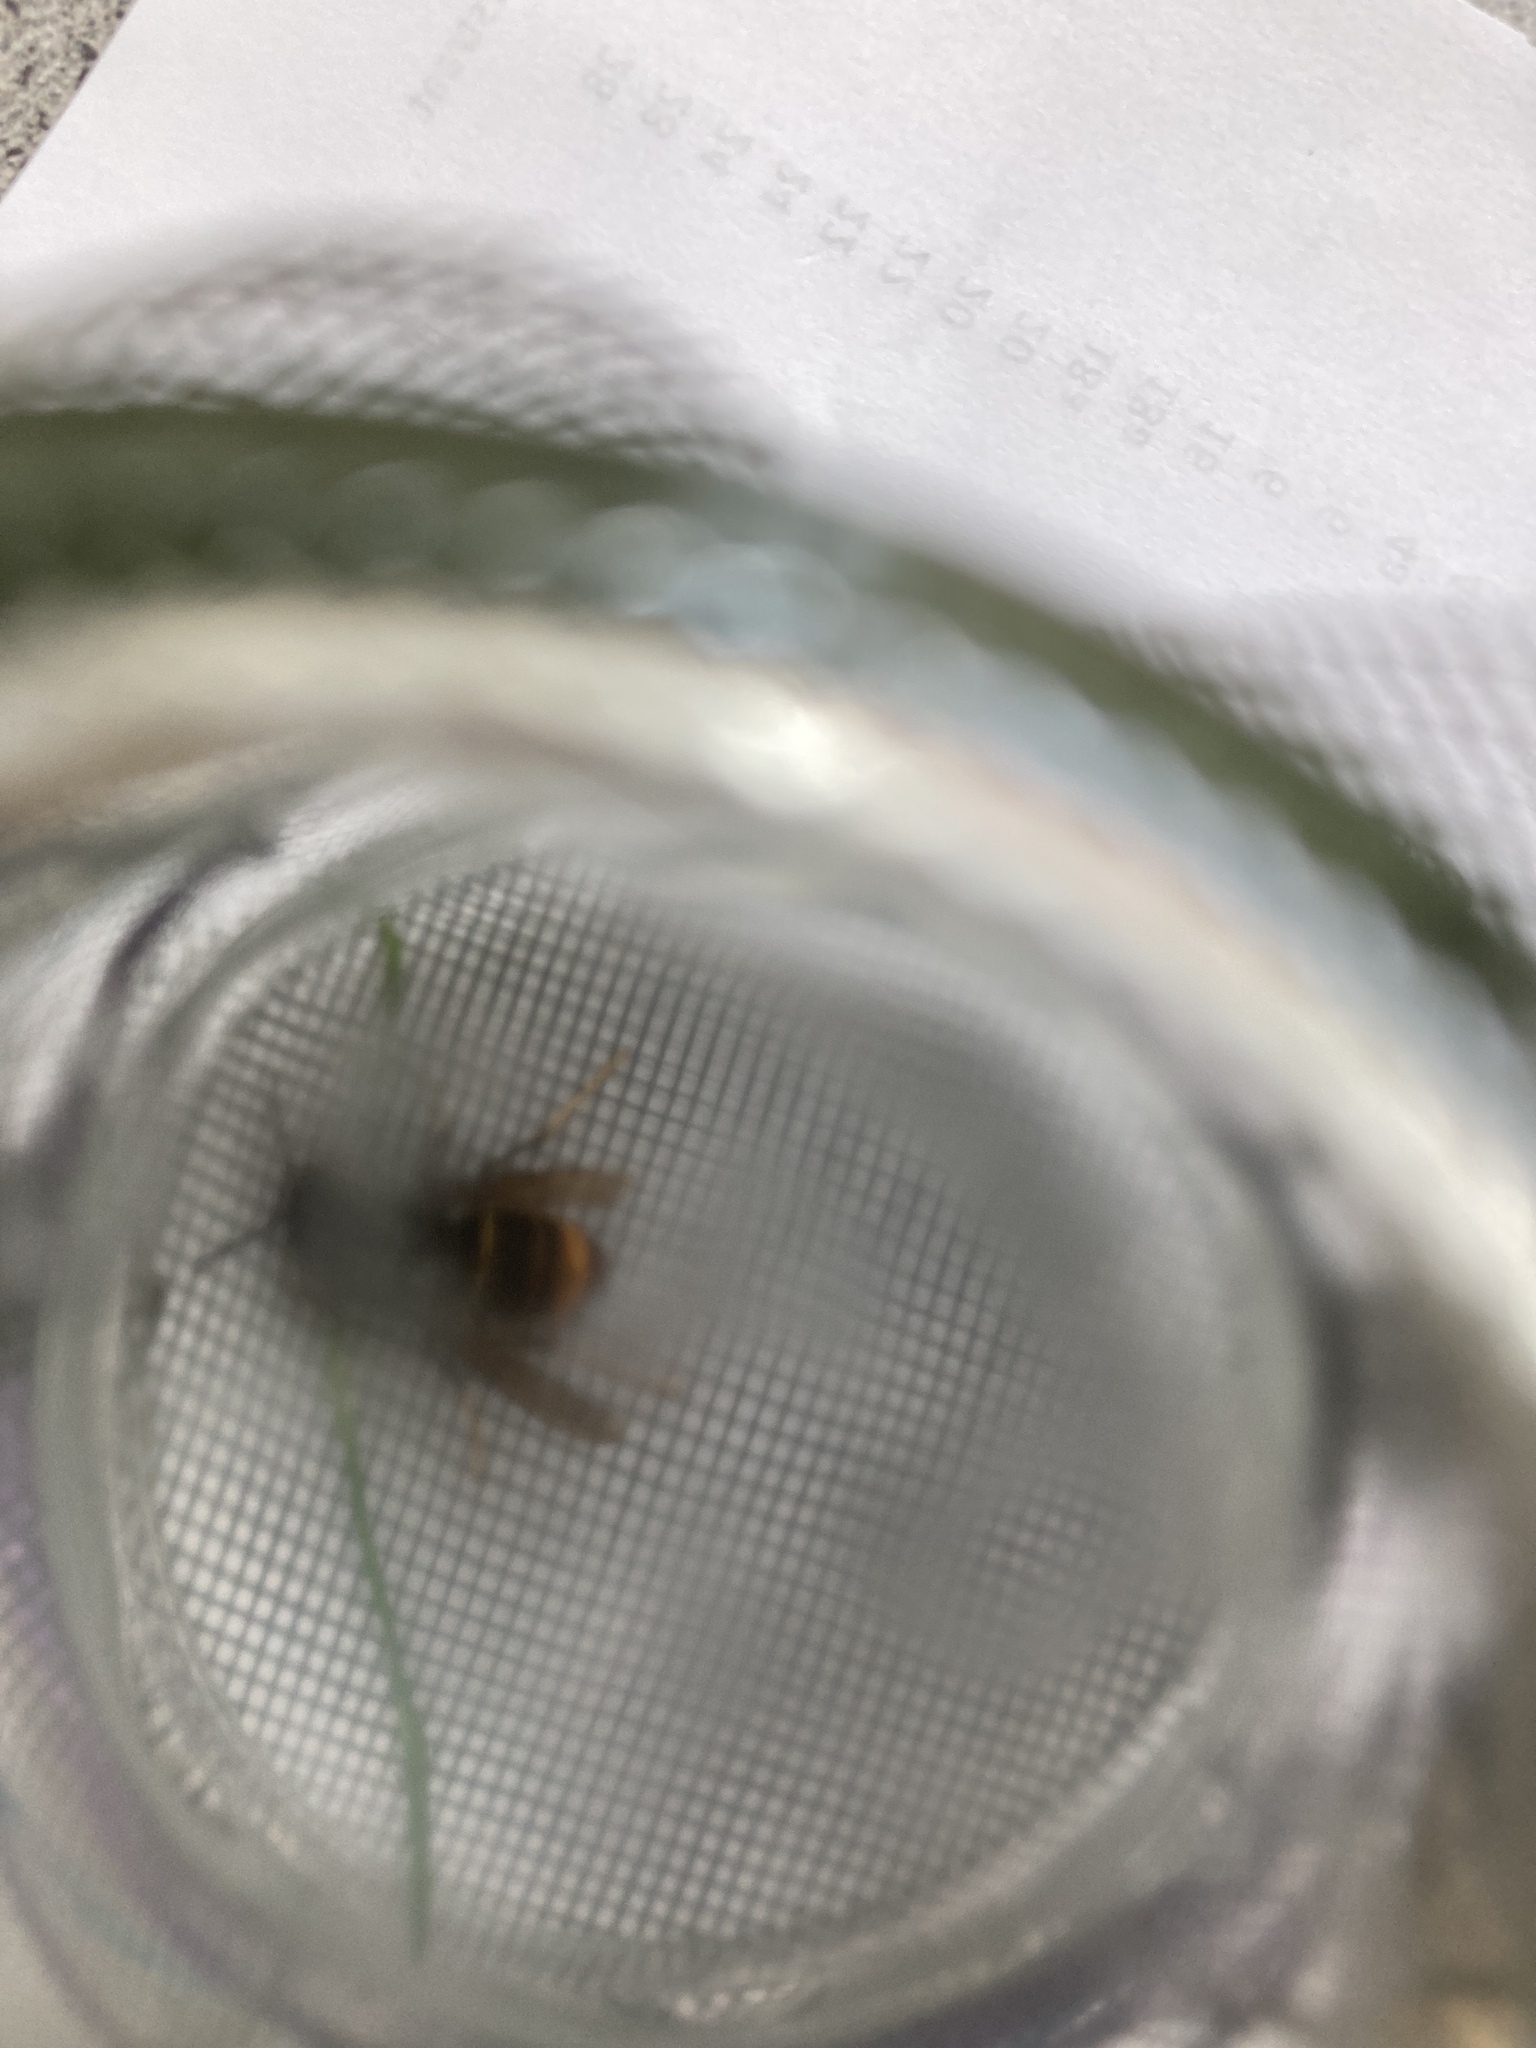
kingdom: Animalia
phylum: Arthropoda
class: Insecta
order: Hymenoptera
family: Vespidae
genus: Vespa
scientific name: Vespa velutina
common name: Asian hornet
